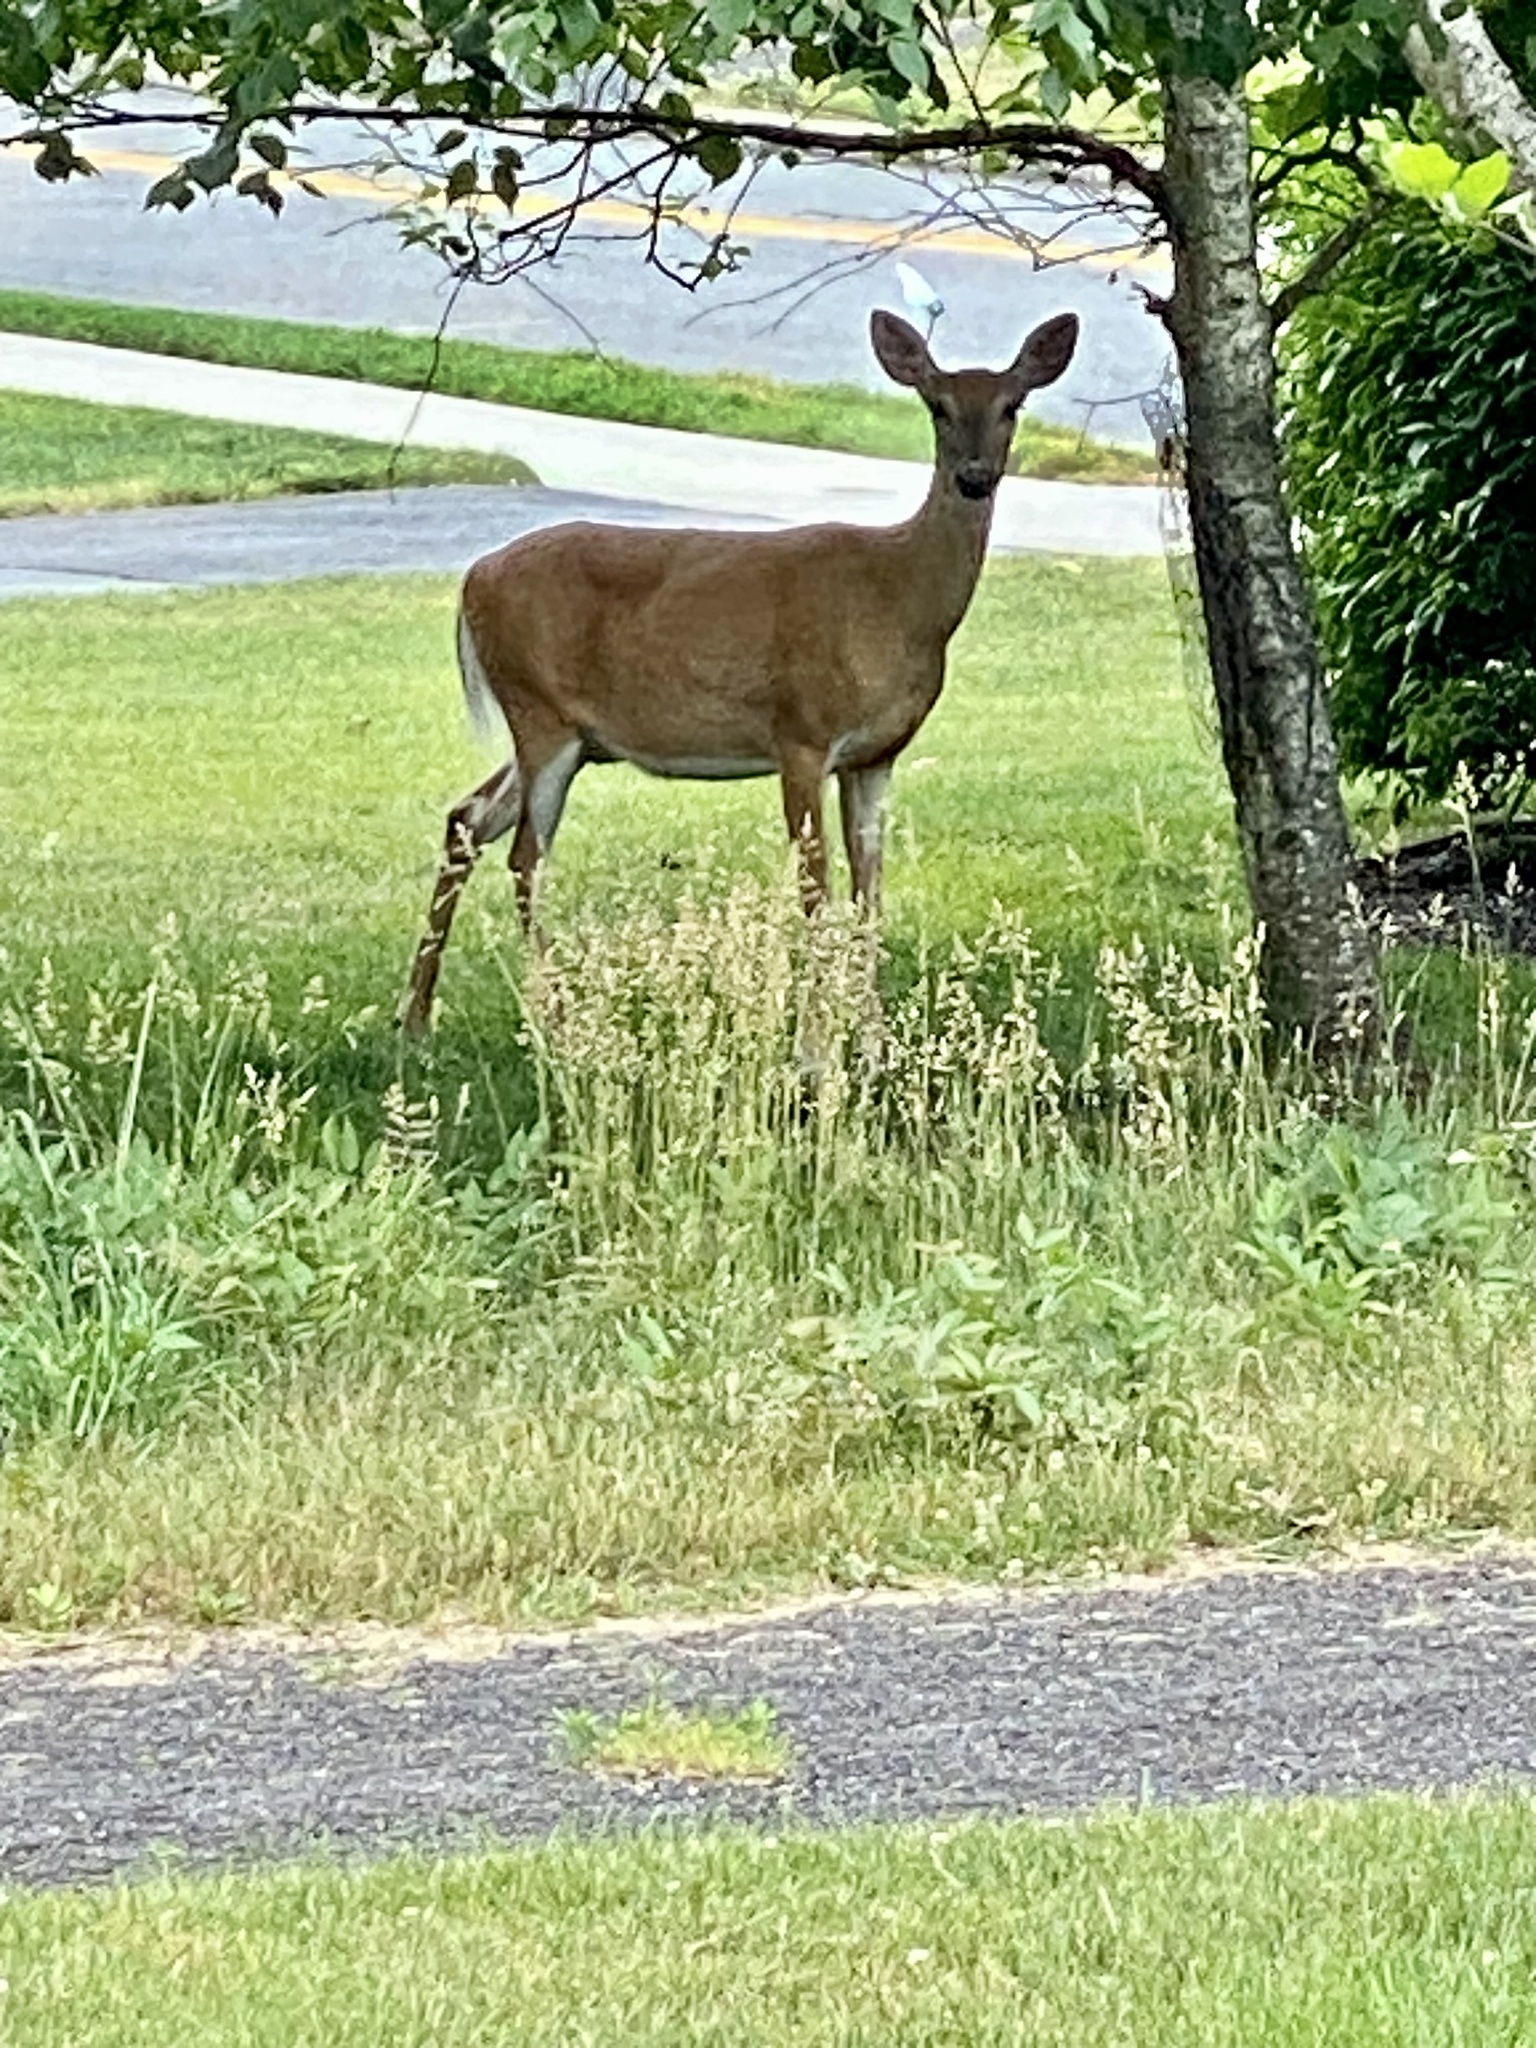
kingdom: Animalia
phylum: Chordata
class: Mammalia
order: Artiodactyla
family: Cervidae
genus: Odocoileus
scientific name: Odocoileus virginianus
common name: White-tailed deer
